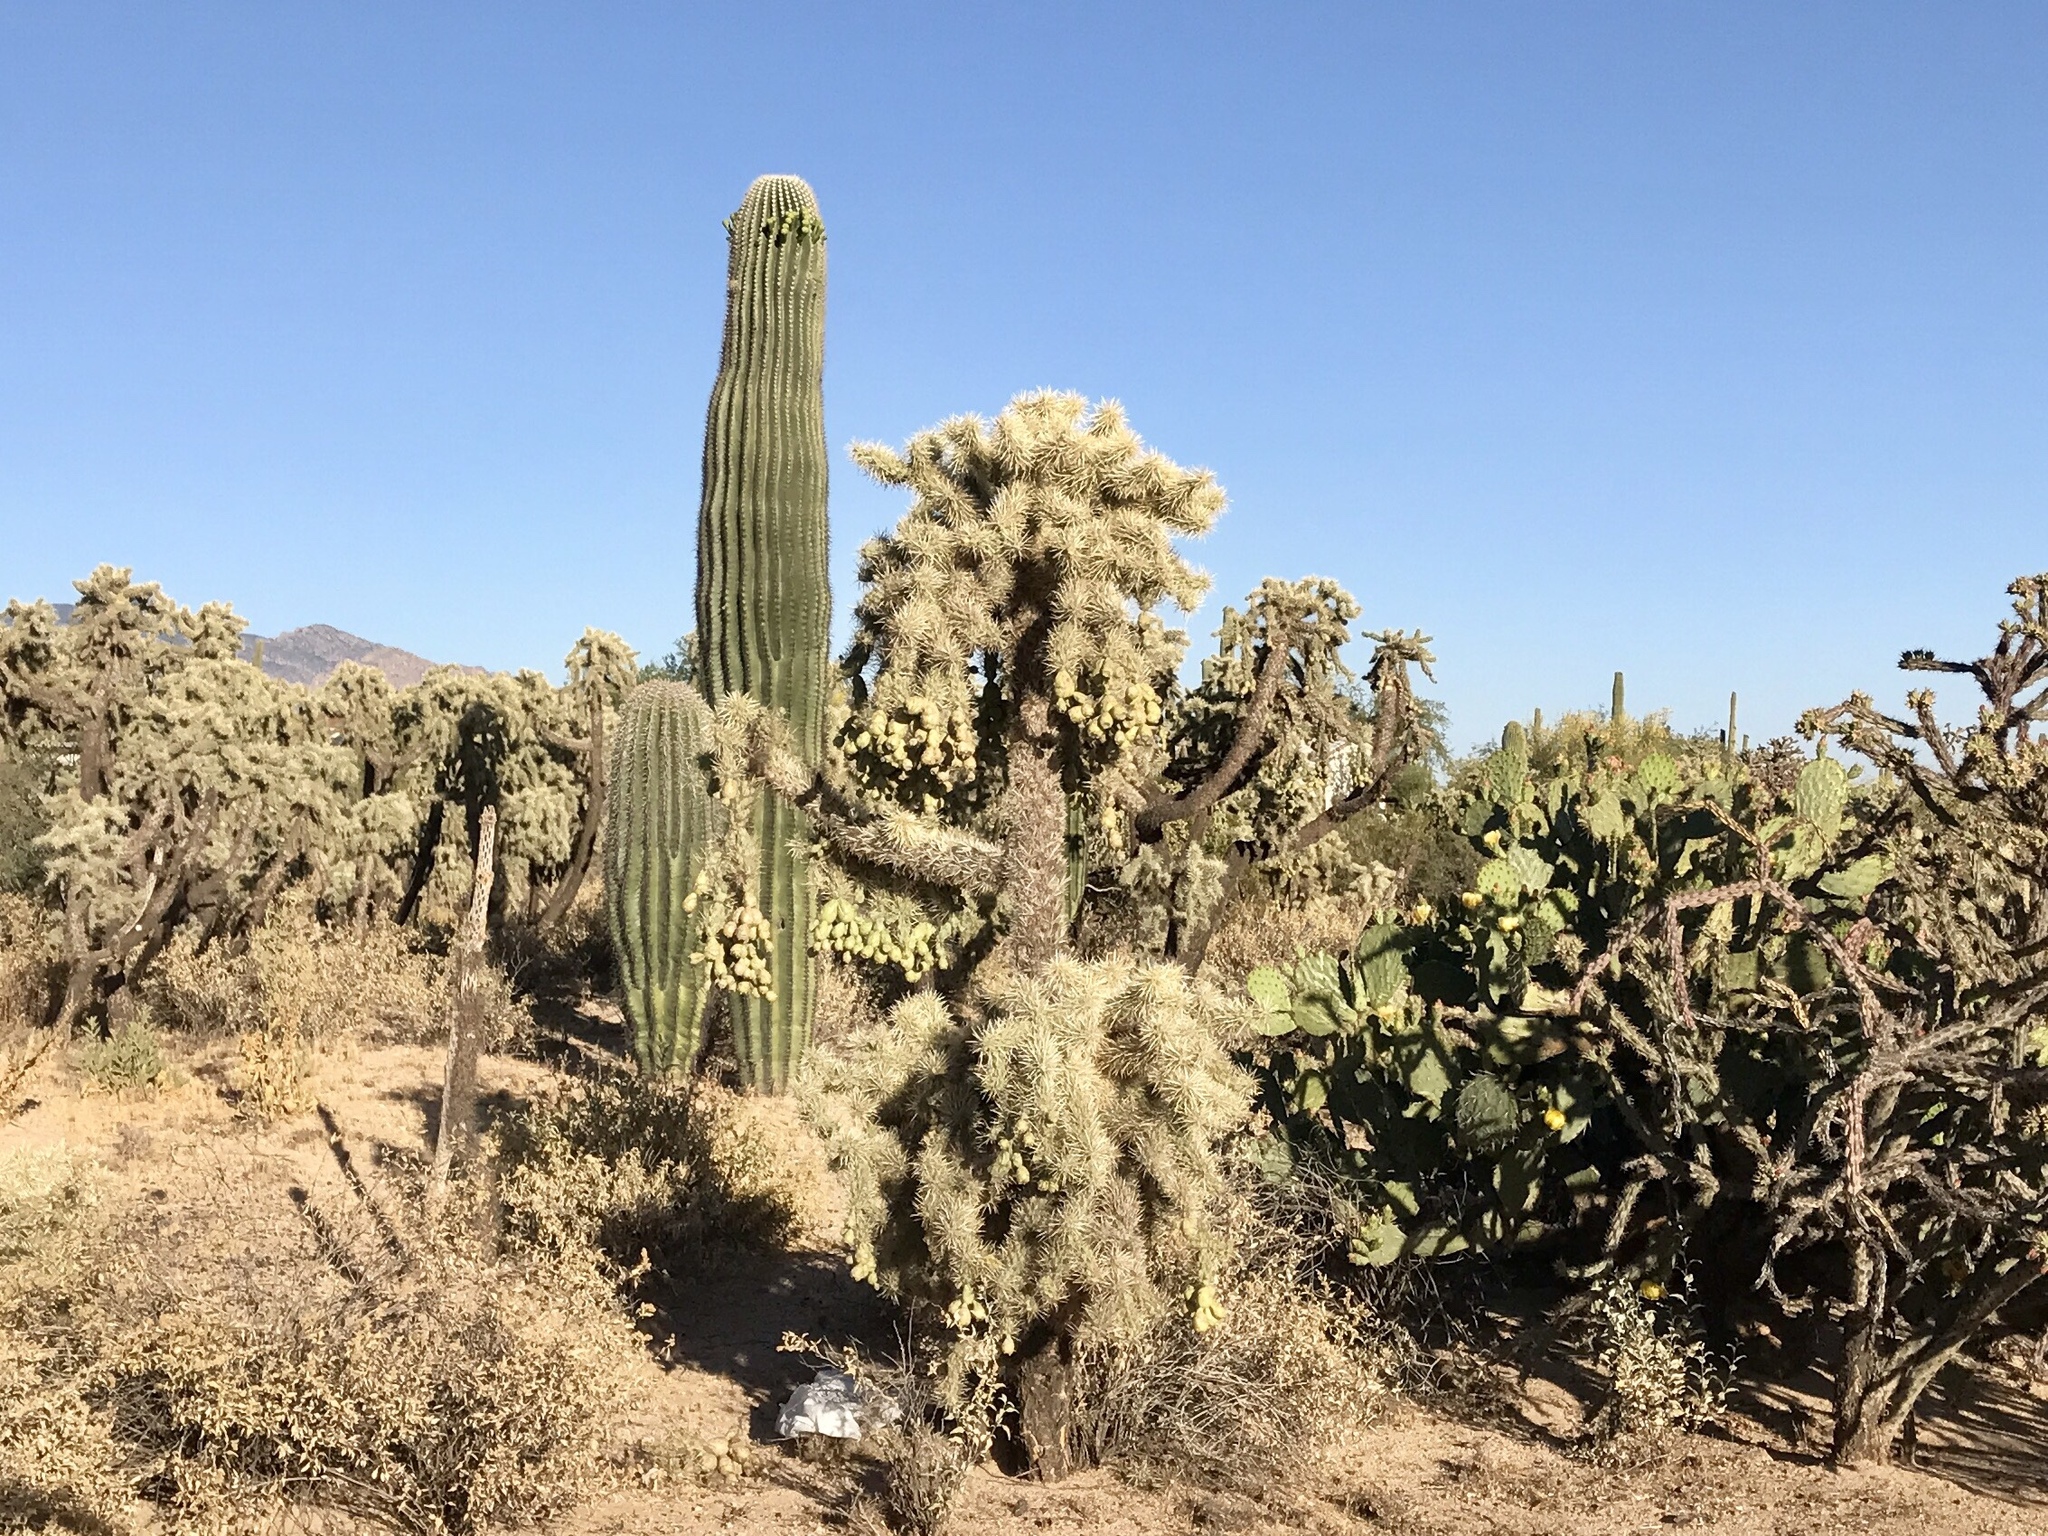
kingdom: Plantae
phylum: Tracheophyta
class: Magnoliopsida
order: Caryophyllales
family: Cactaceae
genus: Cylindropuntia
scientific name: Cylindropuntia fulgida
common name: Jumping cholla
